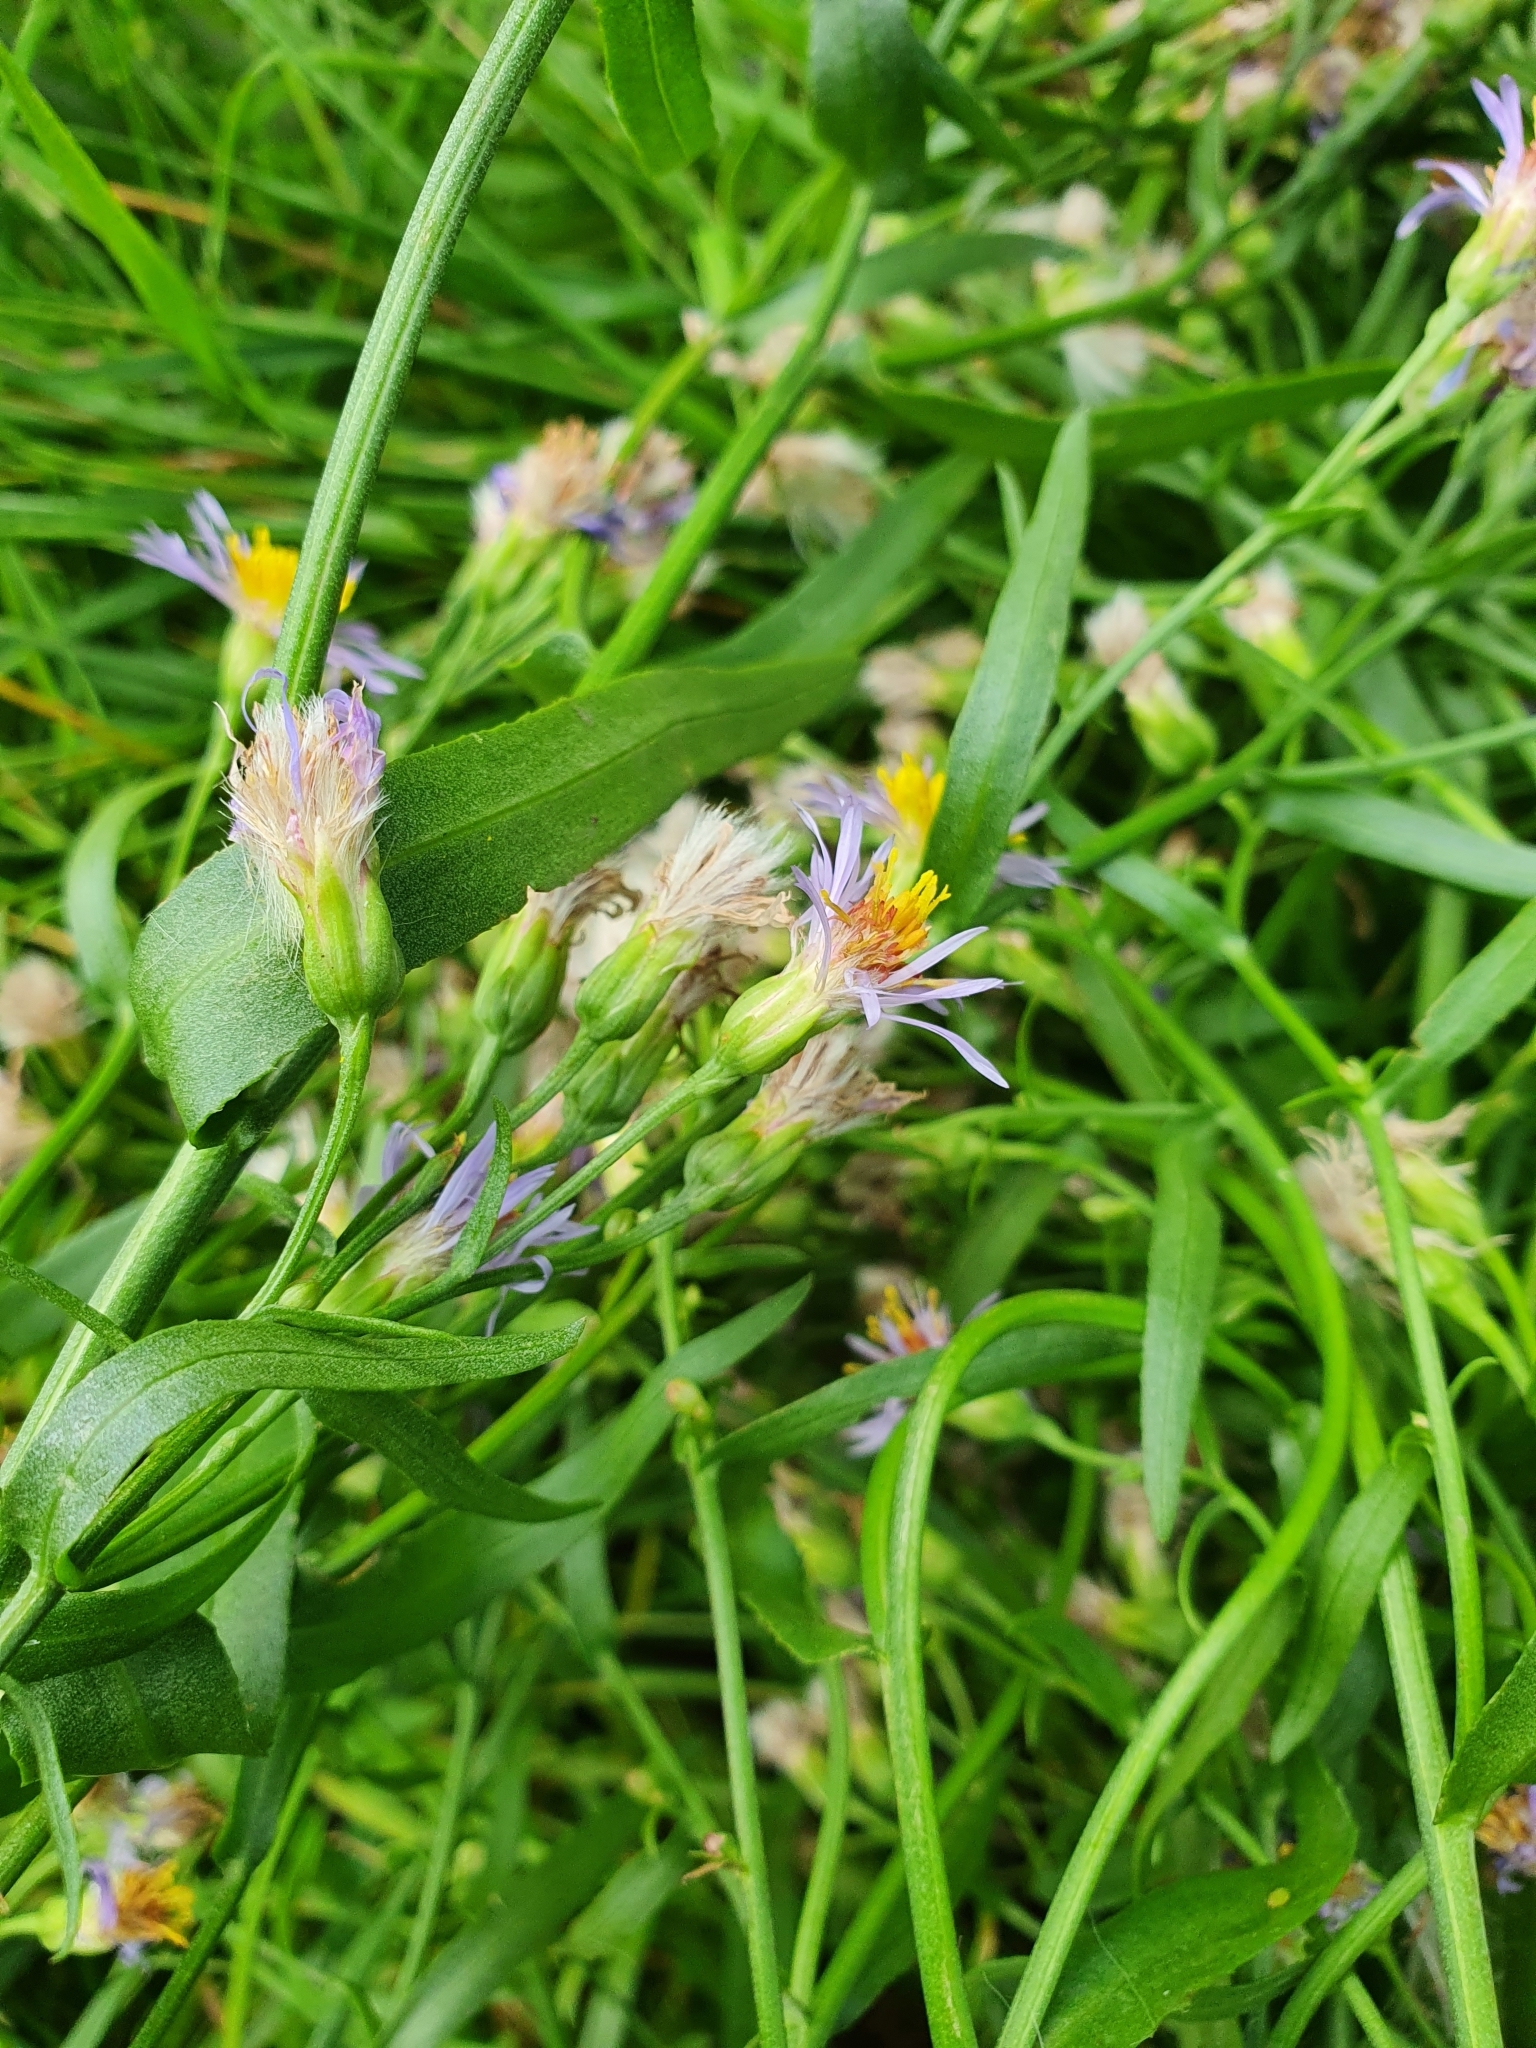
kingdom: Plantae
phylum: Tracheophyta
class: Magnoliopsida
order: Asterales
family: Asteraceae
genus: Tripolium
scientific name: Tripolium pannonicum
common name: Sea aster
